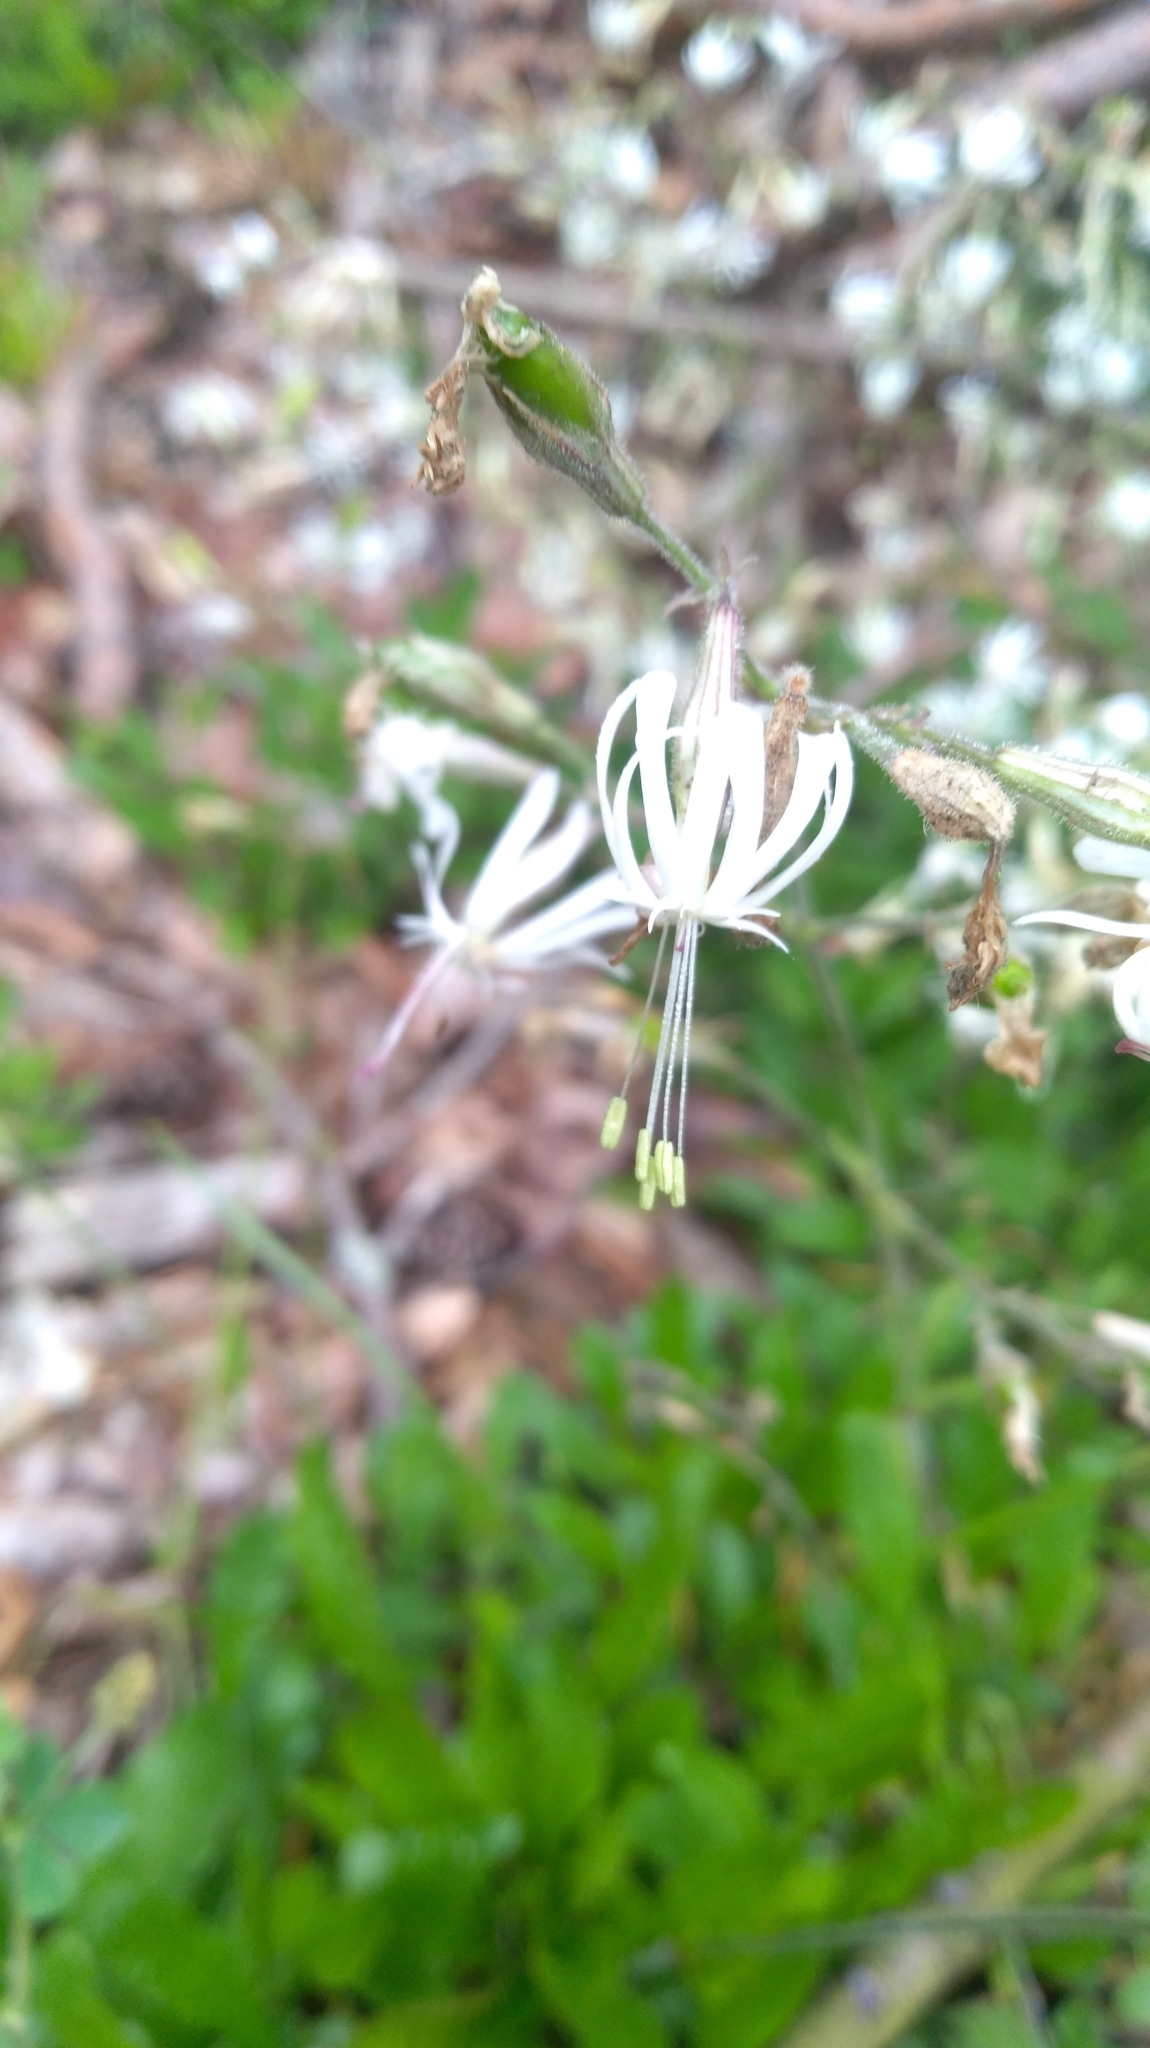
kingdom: Plantae
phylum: Tracheophyta
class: Magnoliopsida
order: Caryophyllales
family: Caryophyllaceae
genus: Silene
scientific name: Silene nutans
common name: Nottingham catchfly
